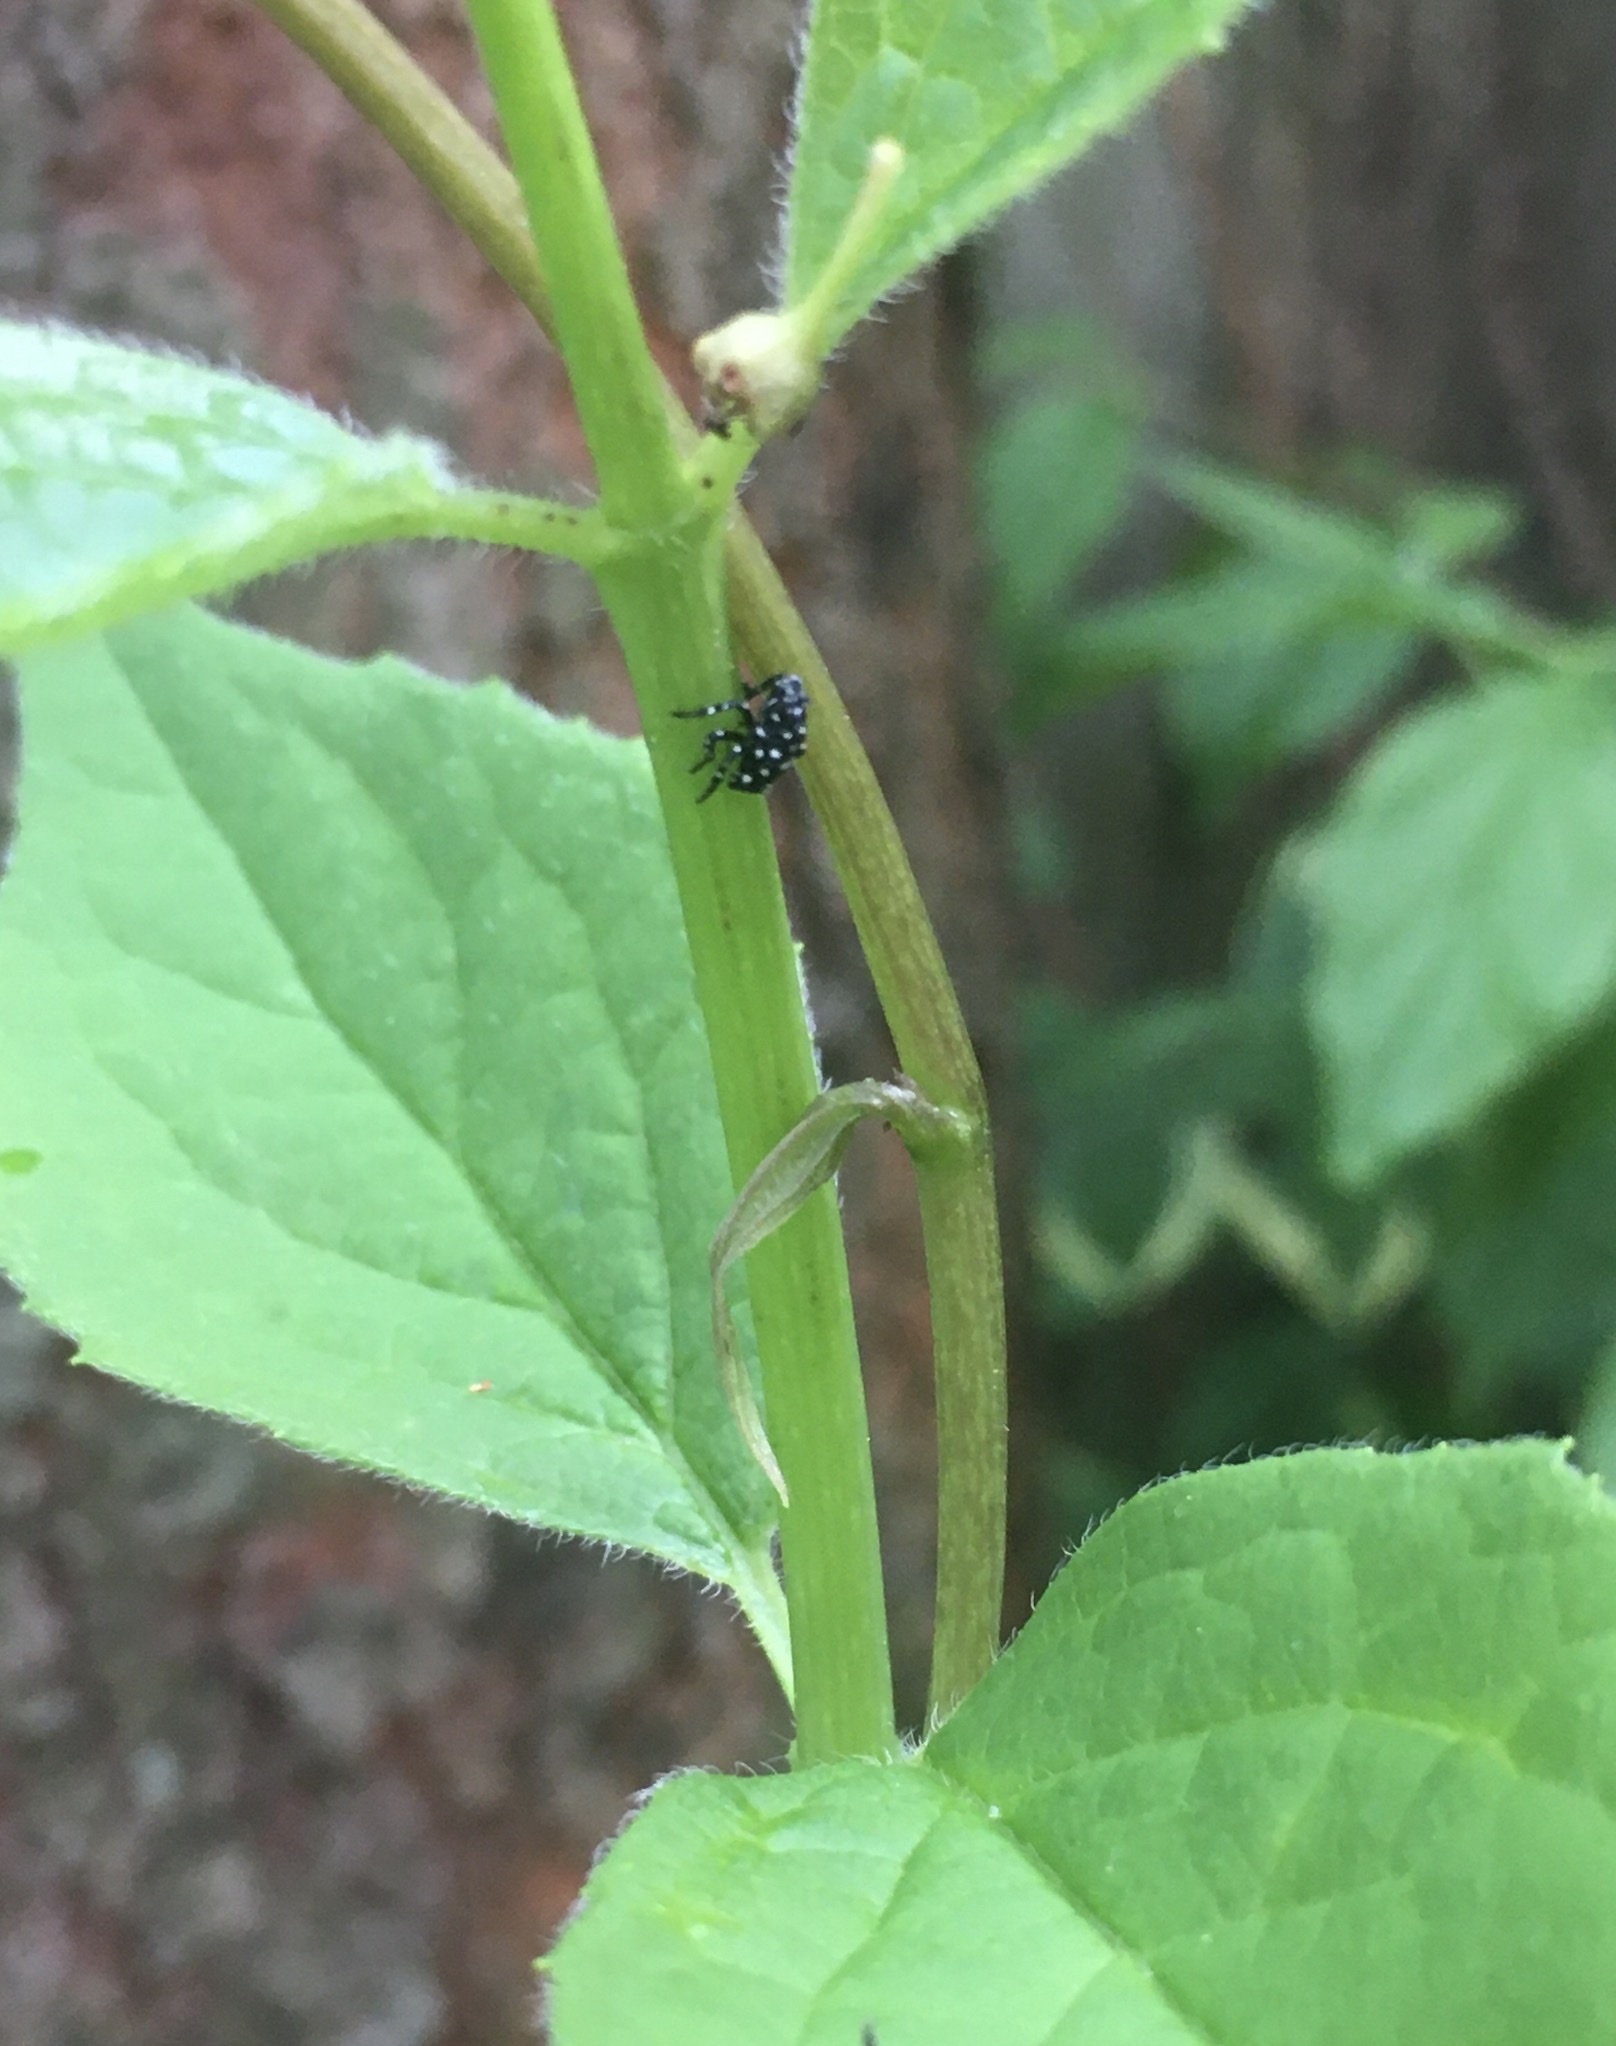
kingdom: Animalia
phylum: Arthropoda
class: Insecta
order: Hemiptera
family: Fulgoridae
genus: Lycorma
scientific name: Lycorma delicatula
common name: Spotted lanternfly
